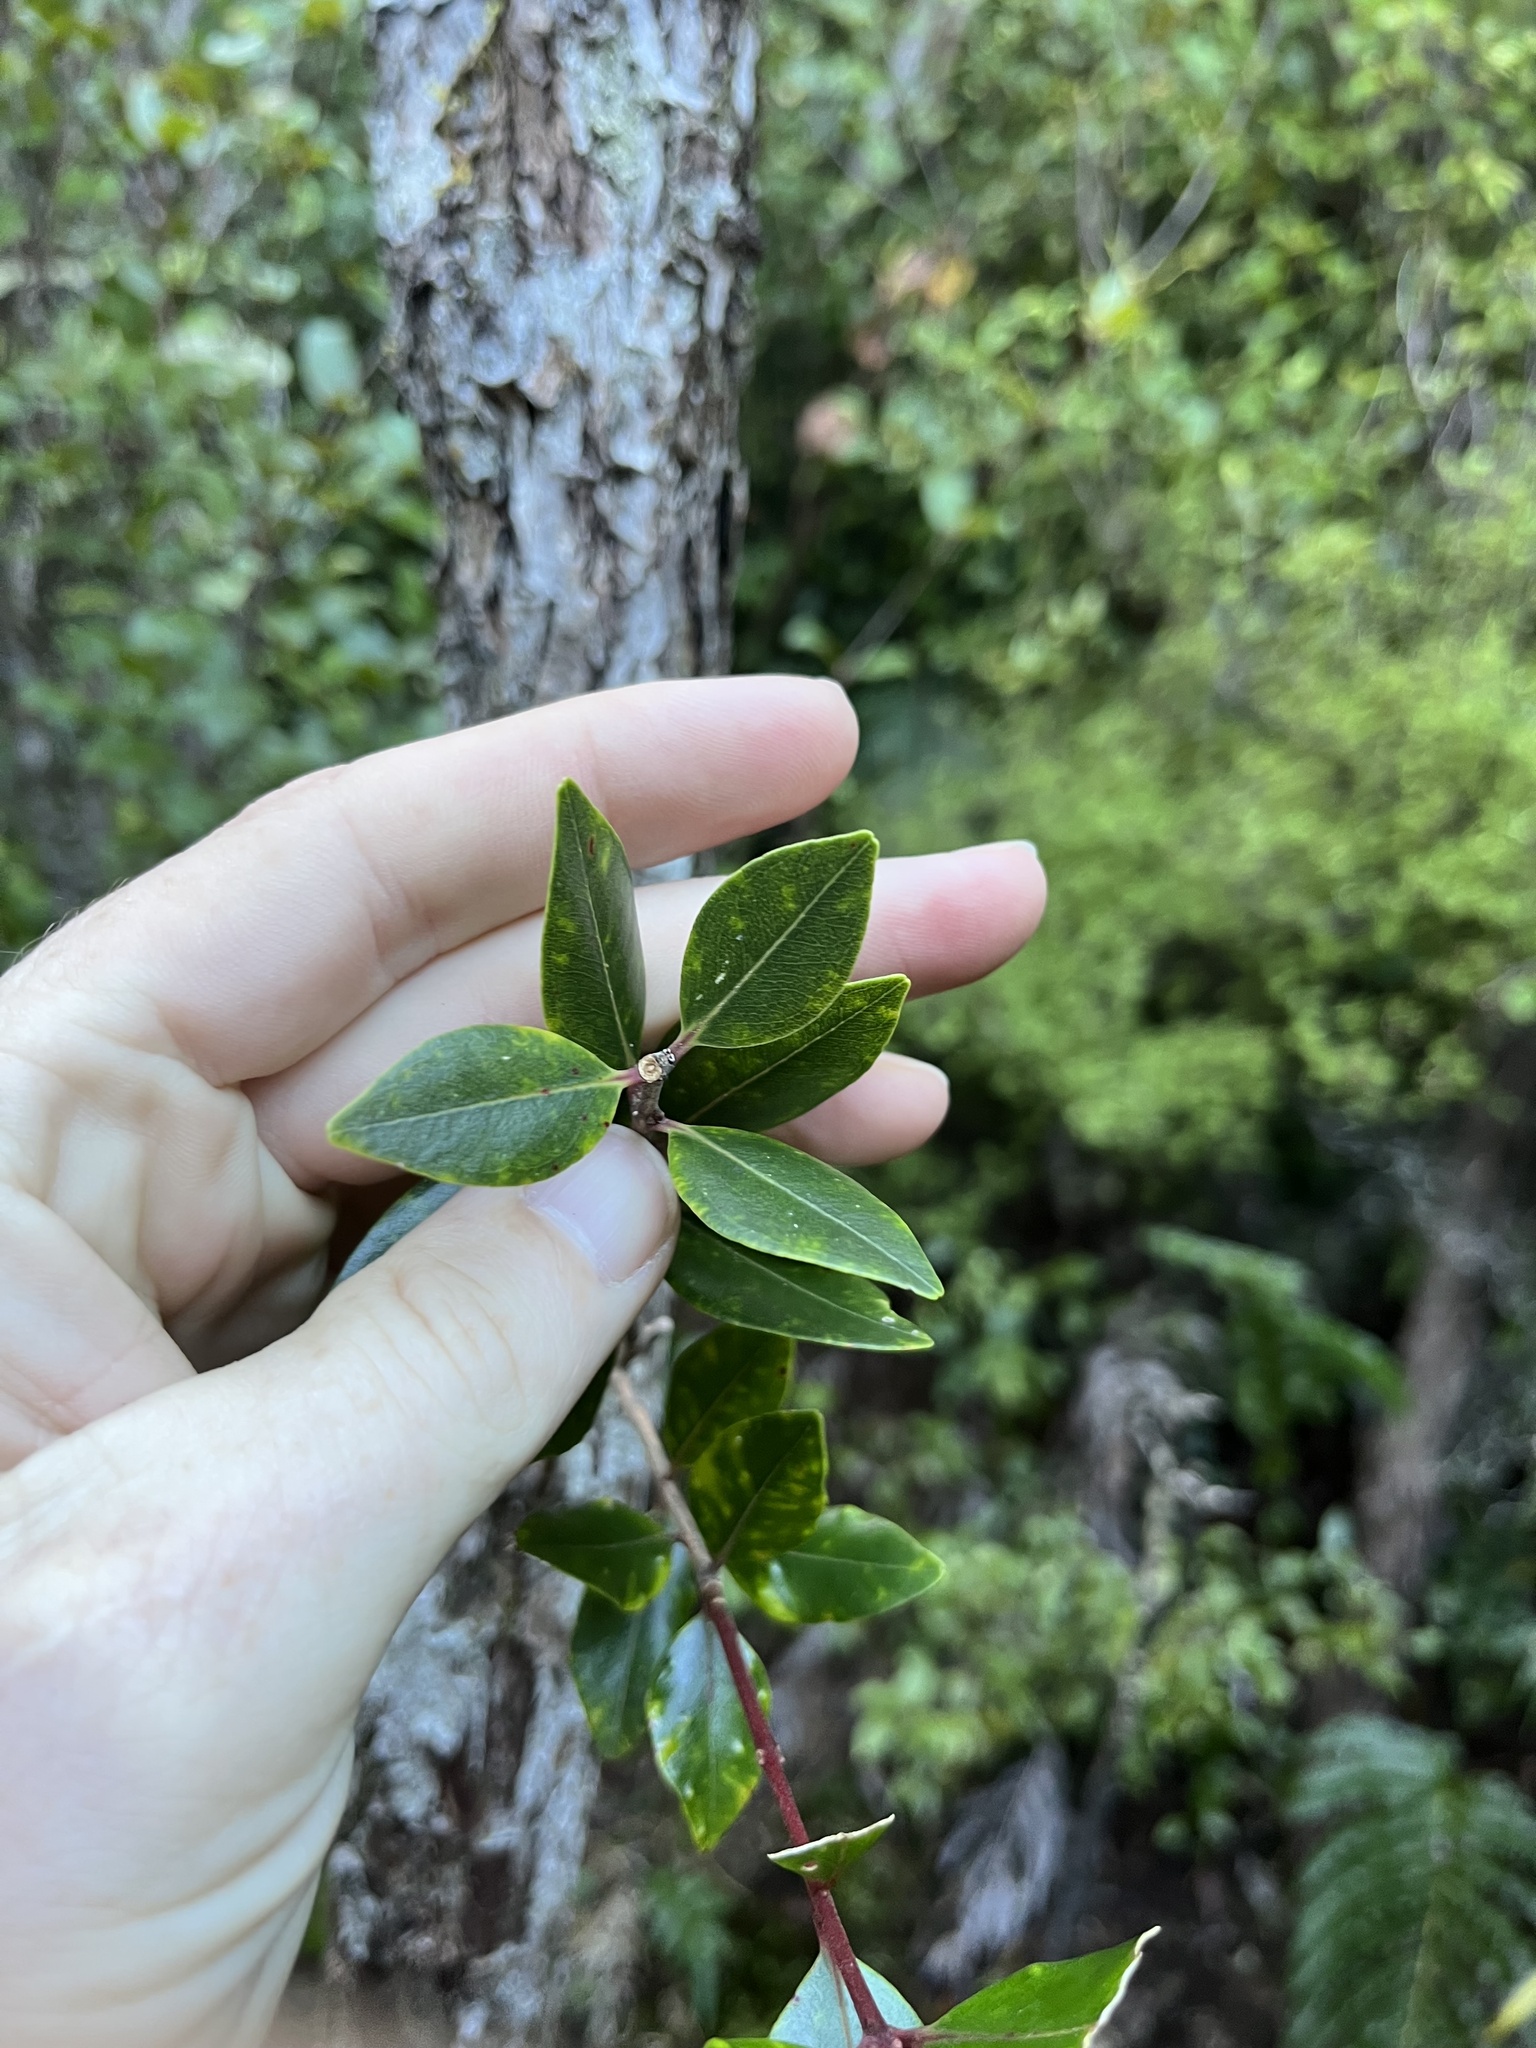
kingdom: Plantae
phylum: Tracheophyta
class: Magnoliopsida
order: Myrtales
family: Myrtaceae
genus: Metrosideros
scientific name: Metrosideros robusta
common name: Northern rata
